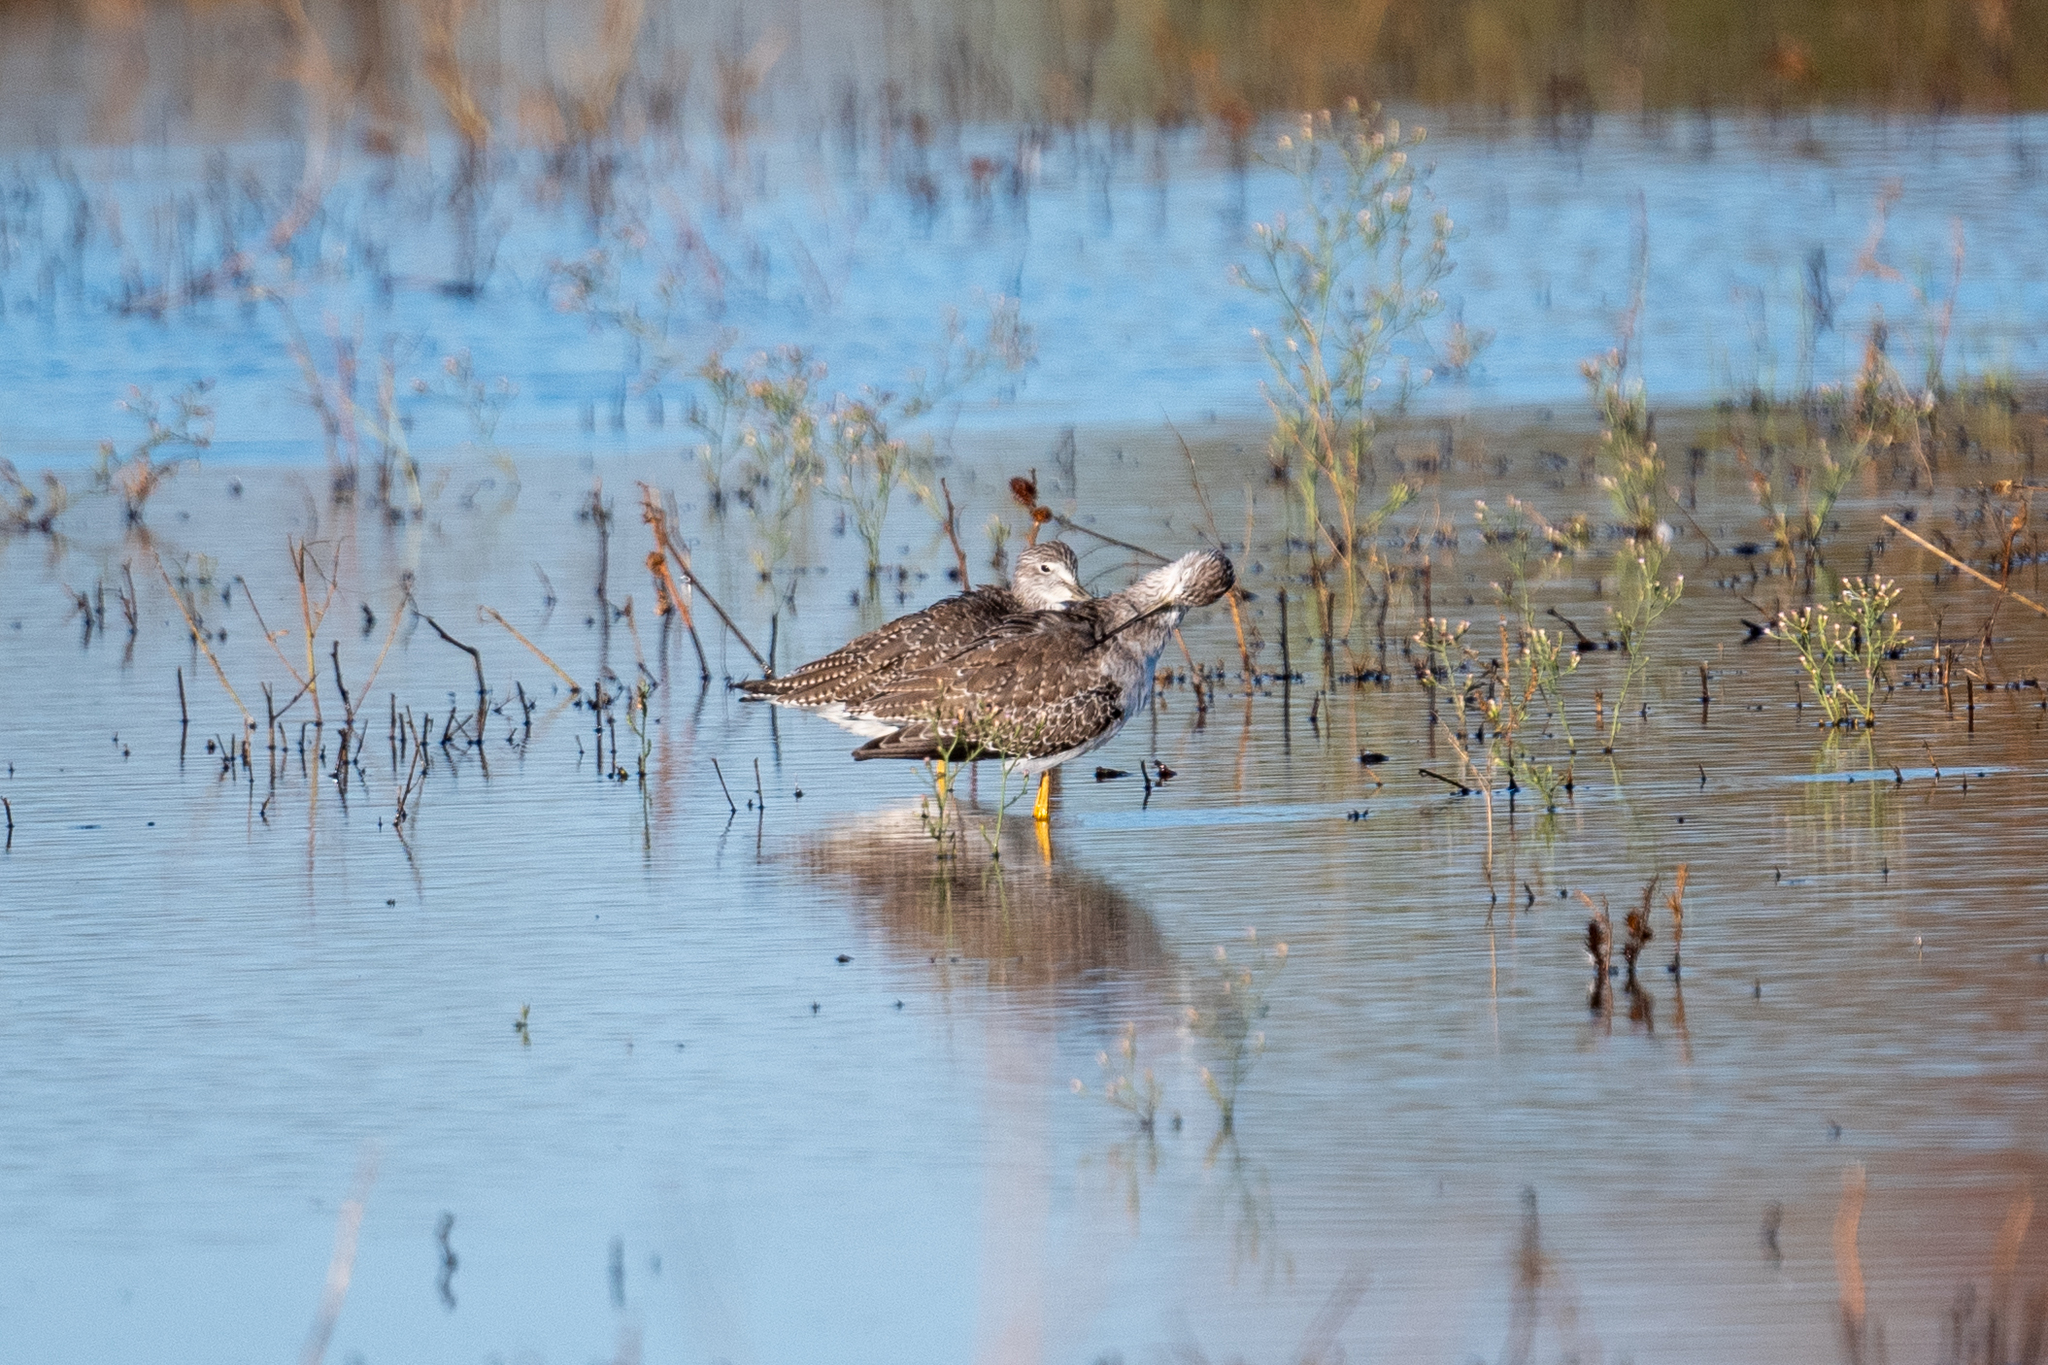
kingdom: Animalia
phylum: Chordata
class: Aves
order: Charadriiformes
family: Scolopacidae
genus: Tringa
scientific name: Tringa melanoleuca
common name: Greater yellowlegs
